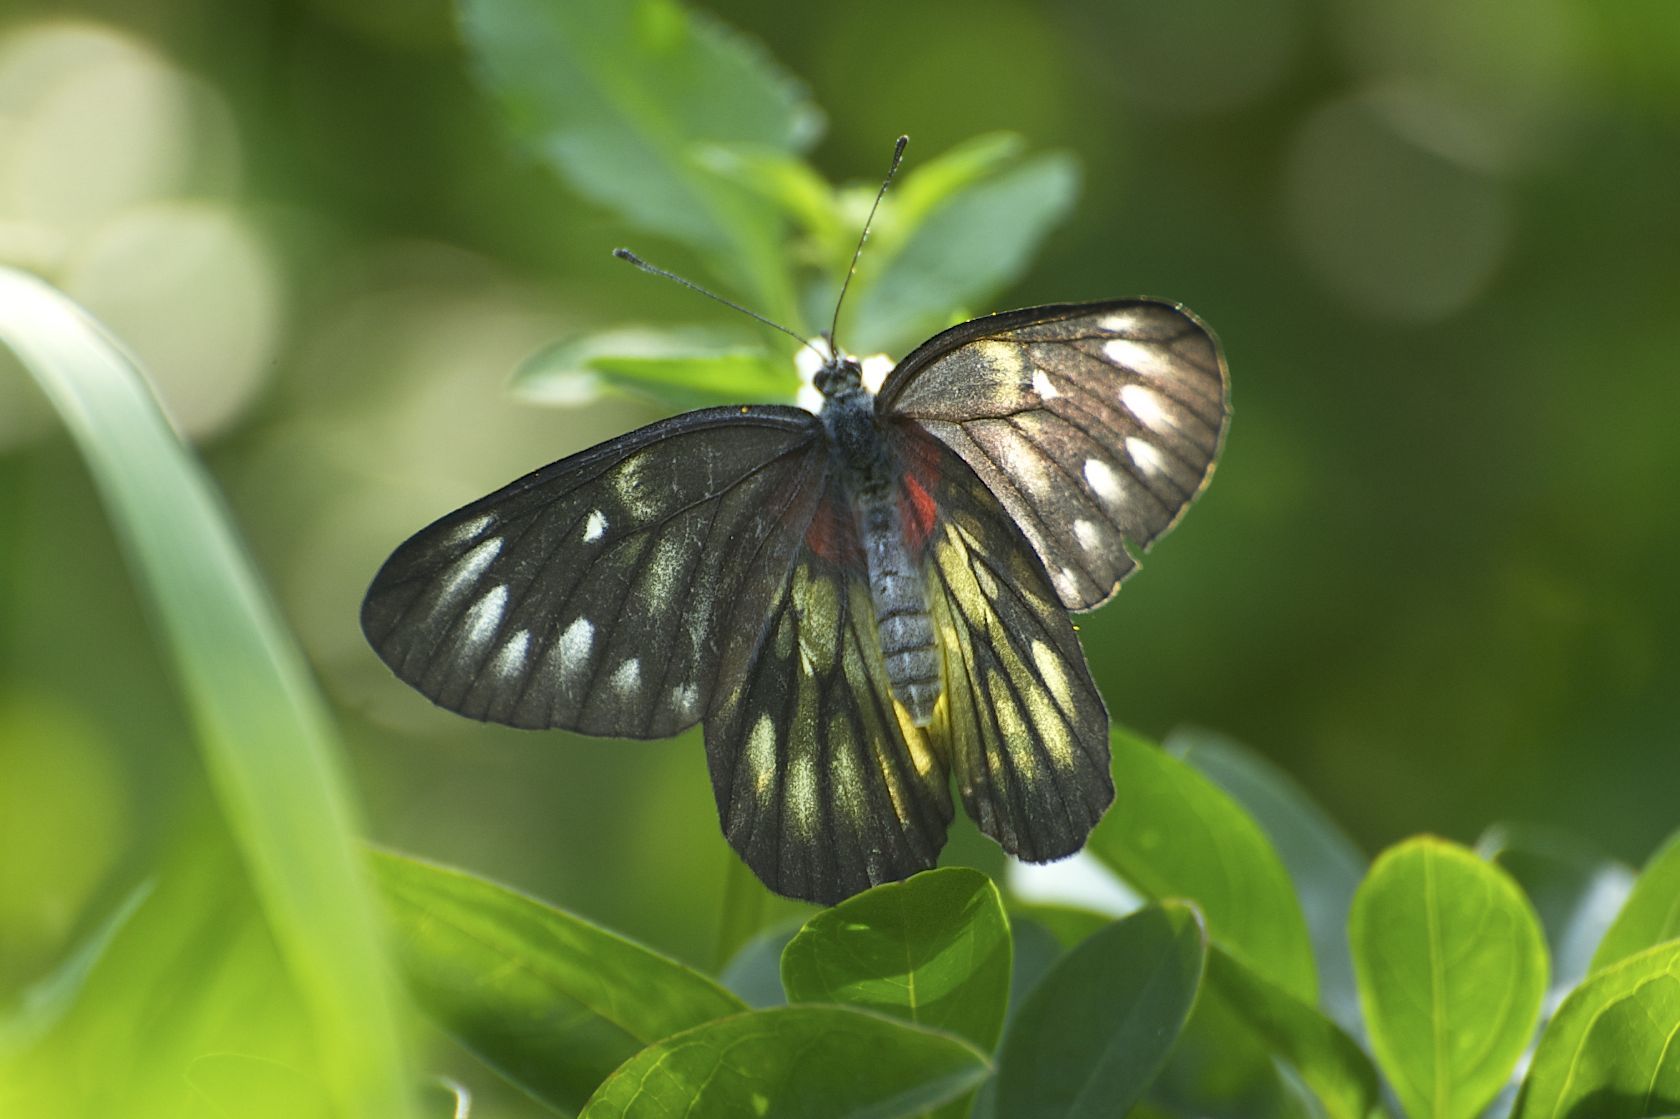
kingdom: Animalia
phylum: Arthropoda
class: Insecta
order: Lepidoptera
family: Pieridae
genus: Delias
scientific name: Delias pasithoe
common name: Red-base jezebel
